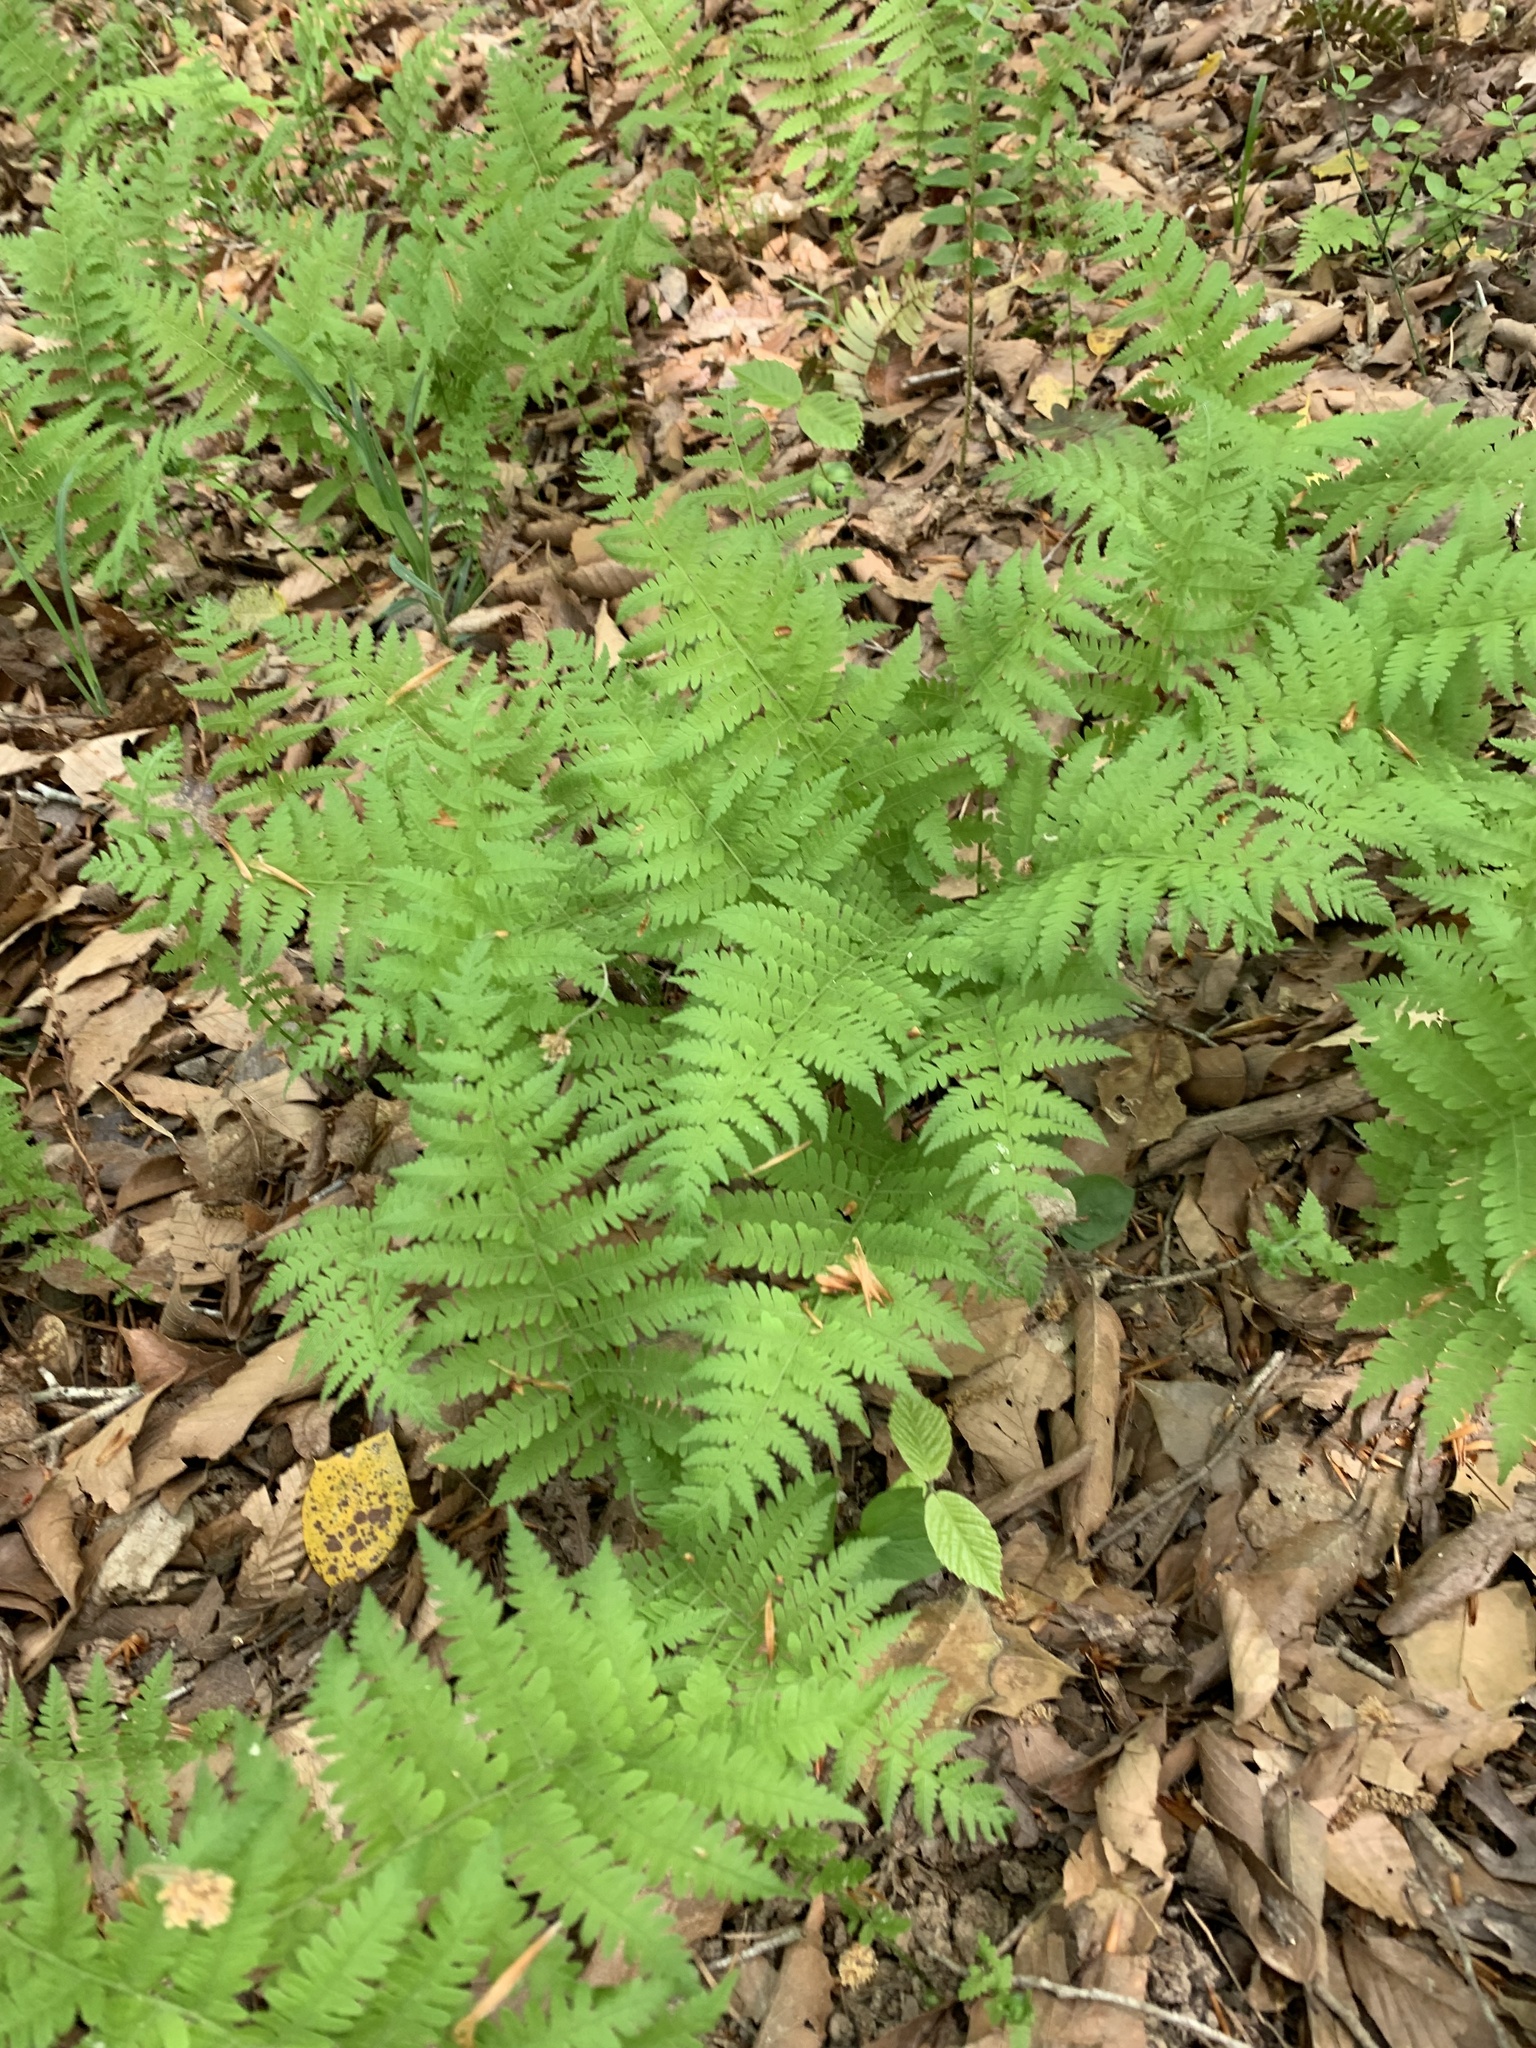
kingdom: Plantae
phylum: Tracheophyta
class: Polypodiopsida
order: Polypodiales
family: Thelypteridaceae
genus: Amauropelta
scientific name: Amauropelta noveboracensis
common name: New york fern
